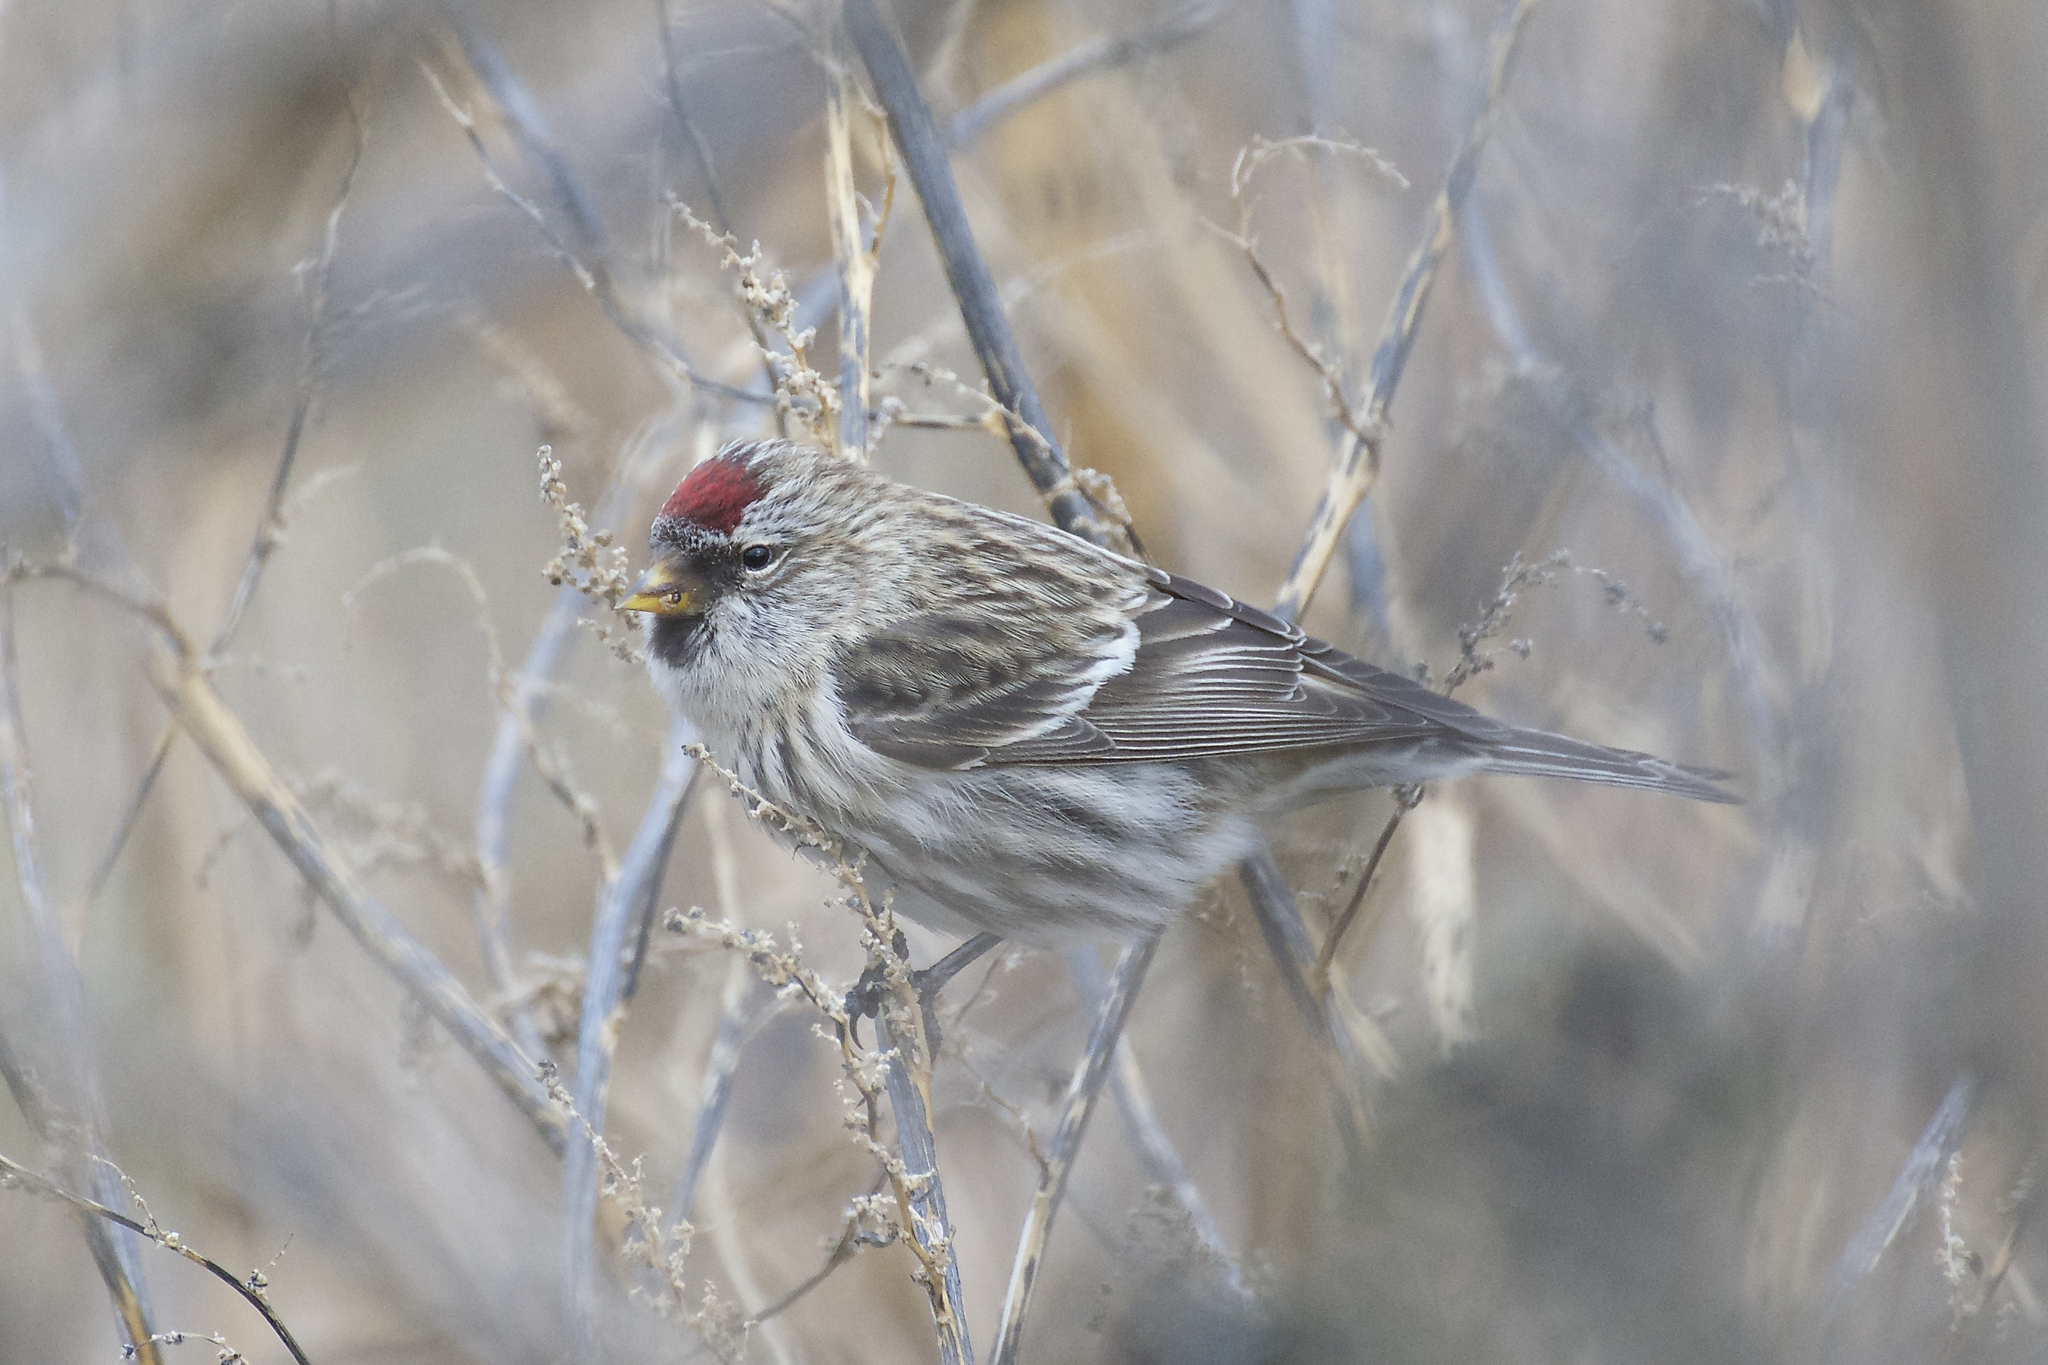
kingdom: Animalia
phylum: Chordata
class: Aves
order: Passeriformes
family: Fringillidae
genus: Acanthis
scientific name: Acanthis flammea
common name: Common redpoll
